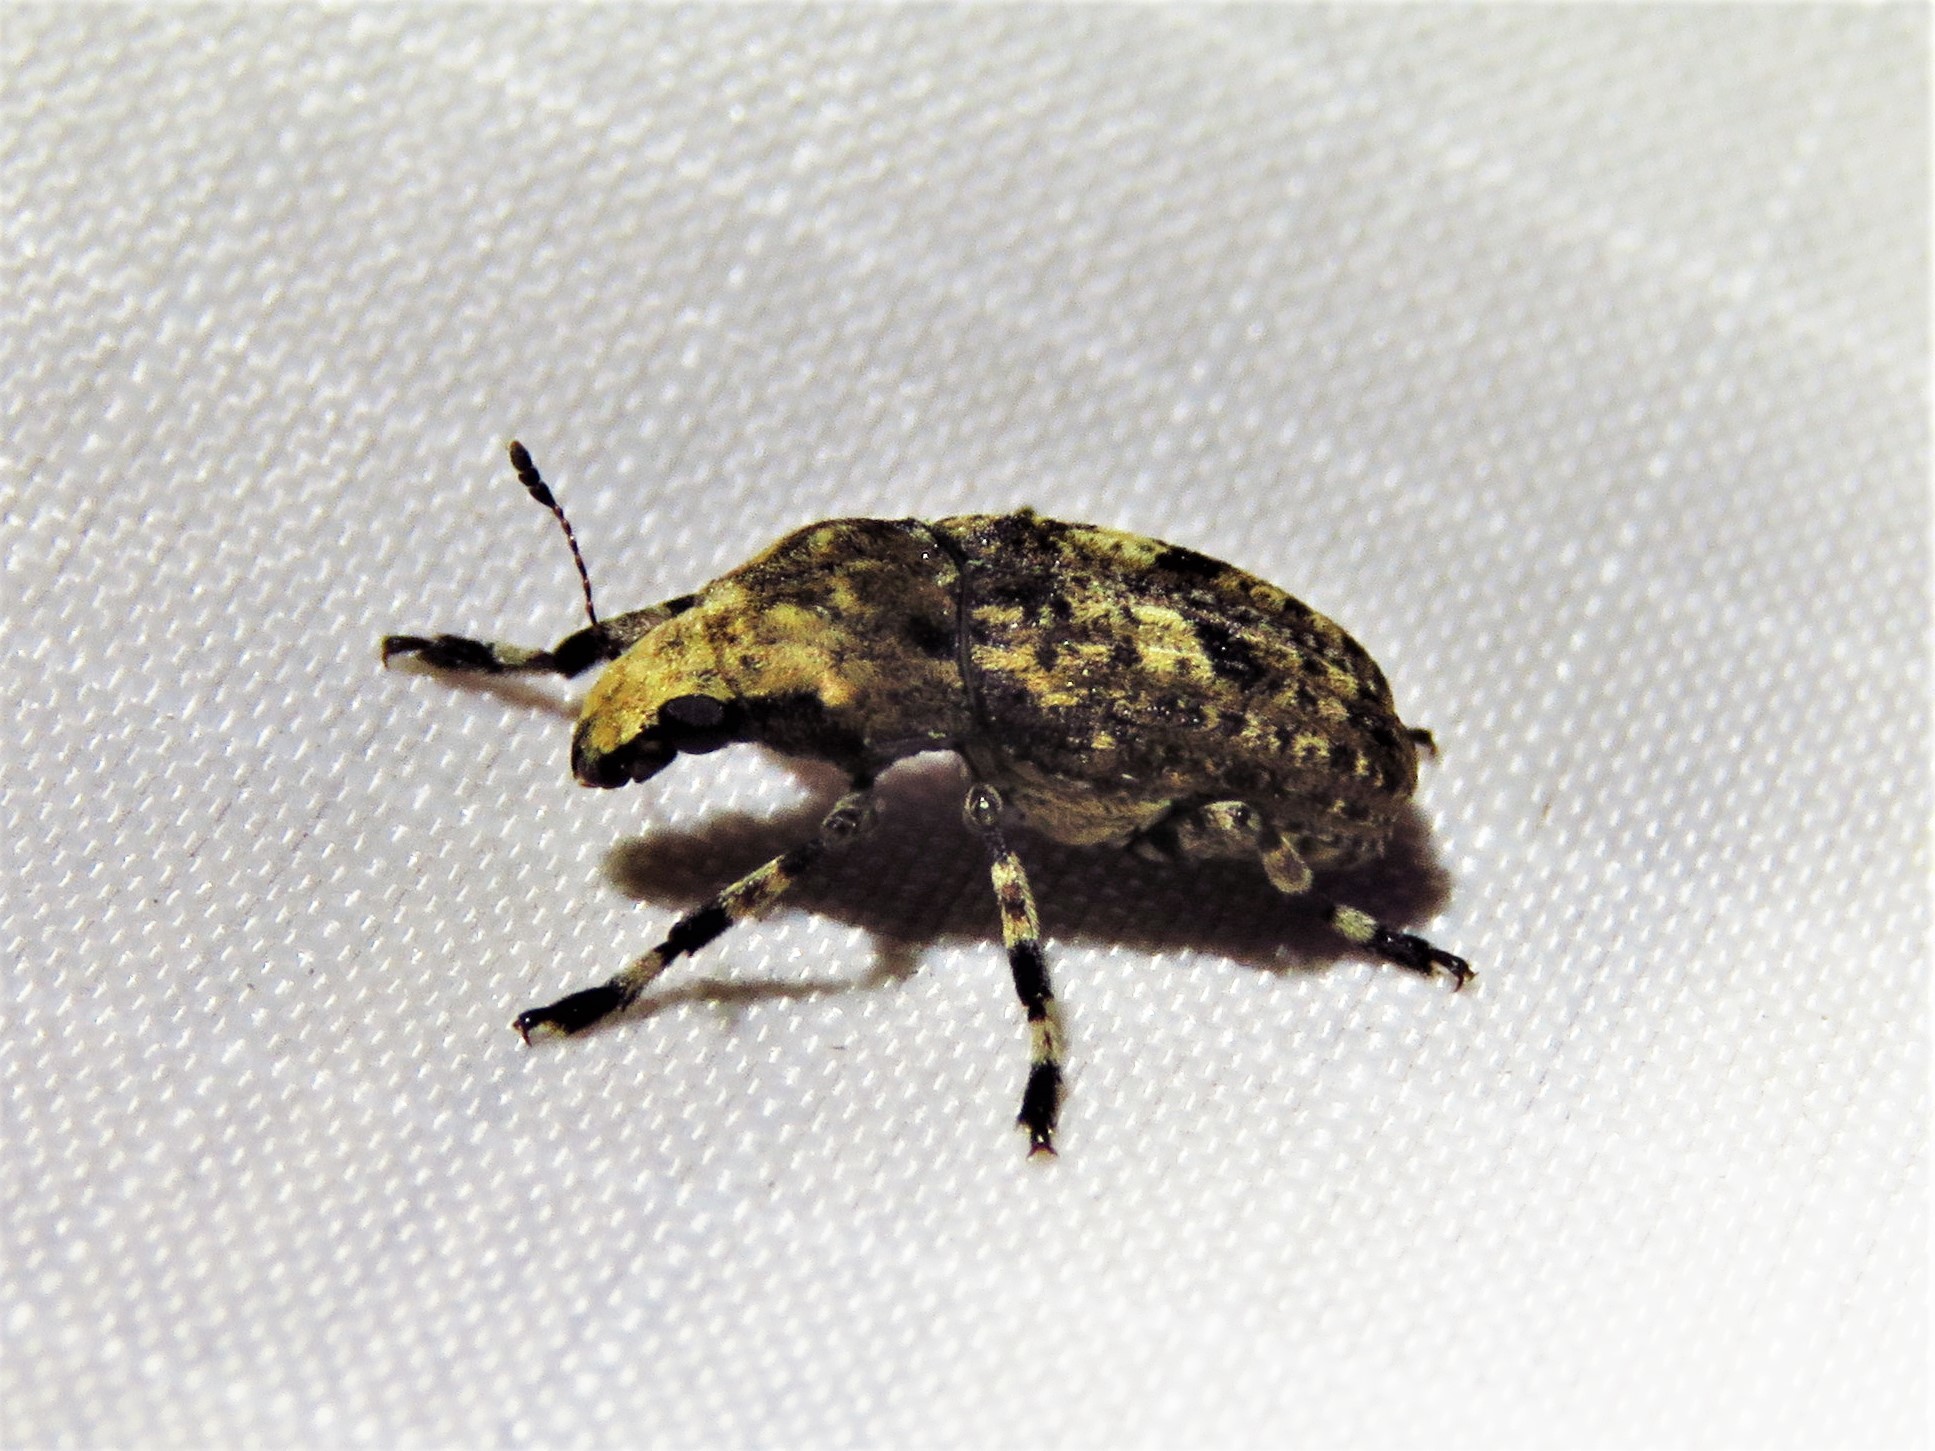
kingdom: Animalia
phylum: Arthropoda
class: Insecta
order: Coleoptera
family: Anthribidae
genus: Euparius
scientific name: Euparius marmoreus
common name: Marbled fungus weevil
